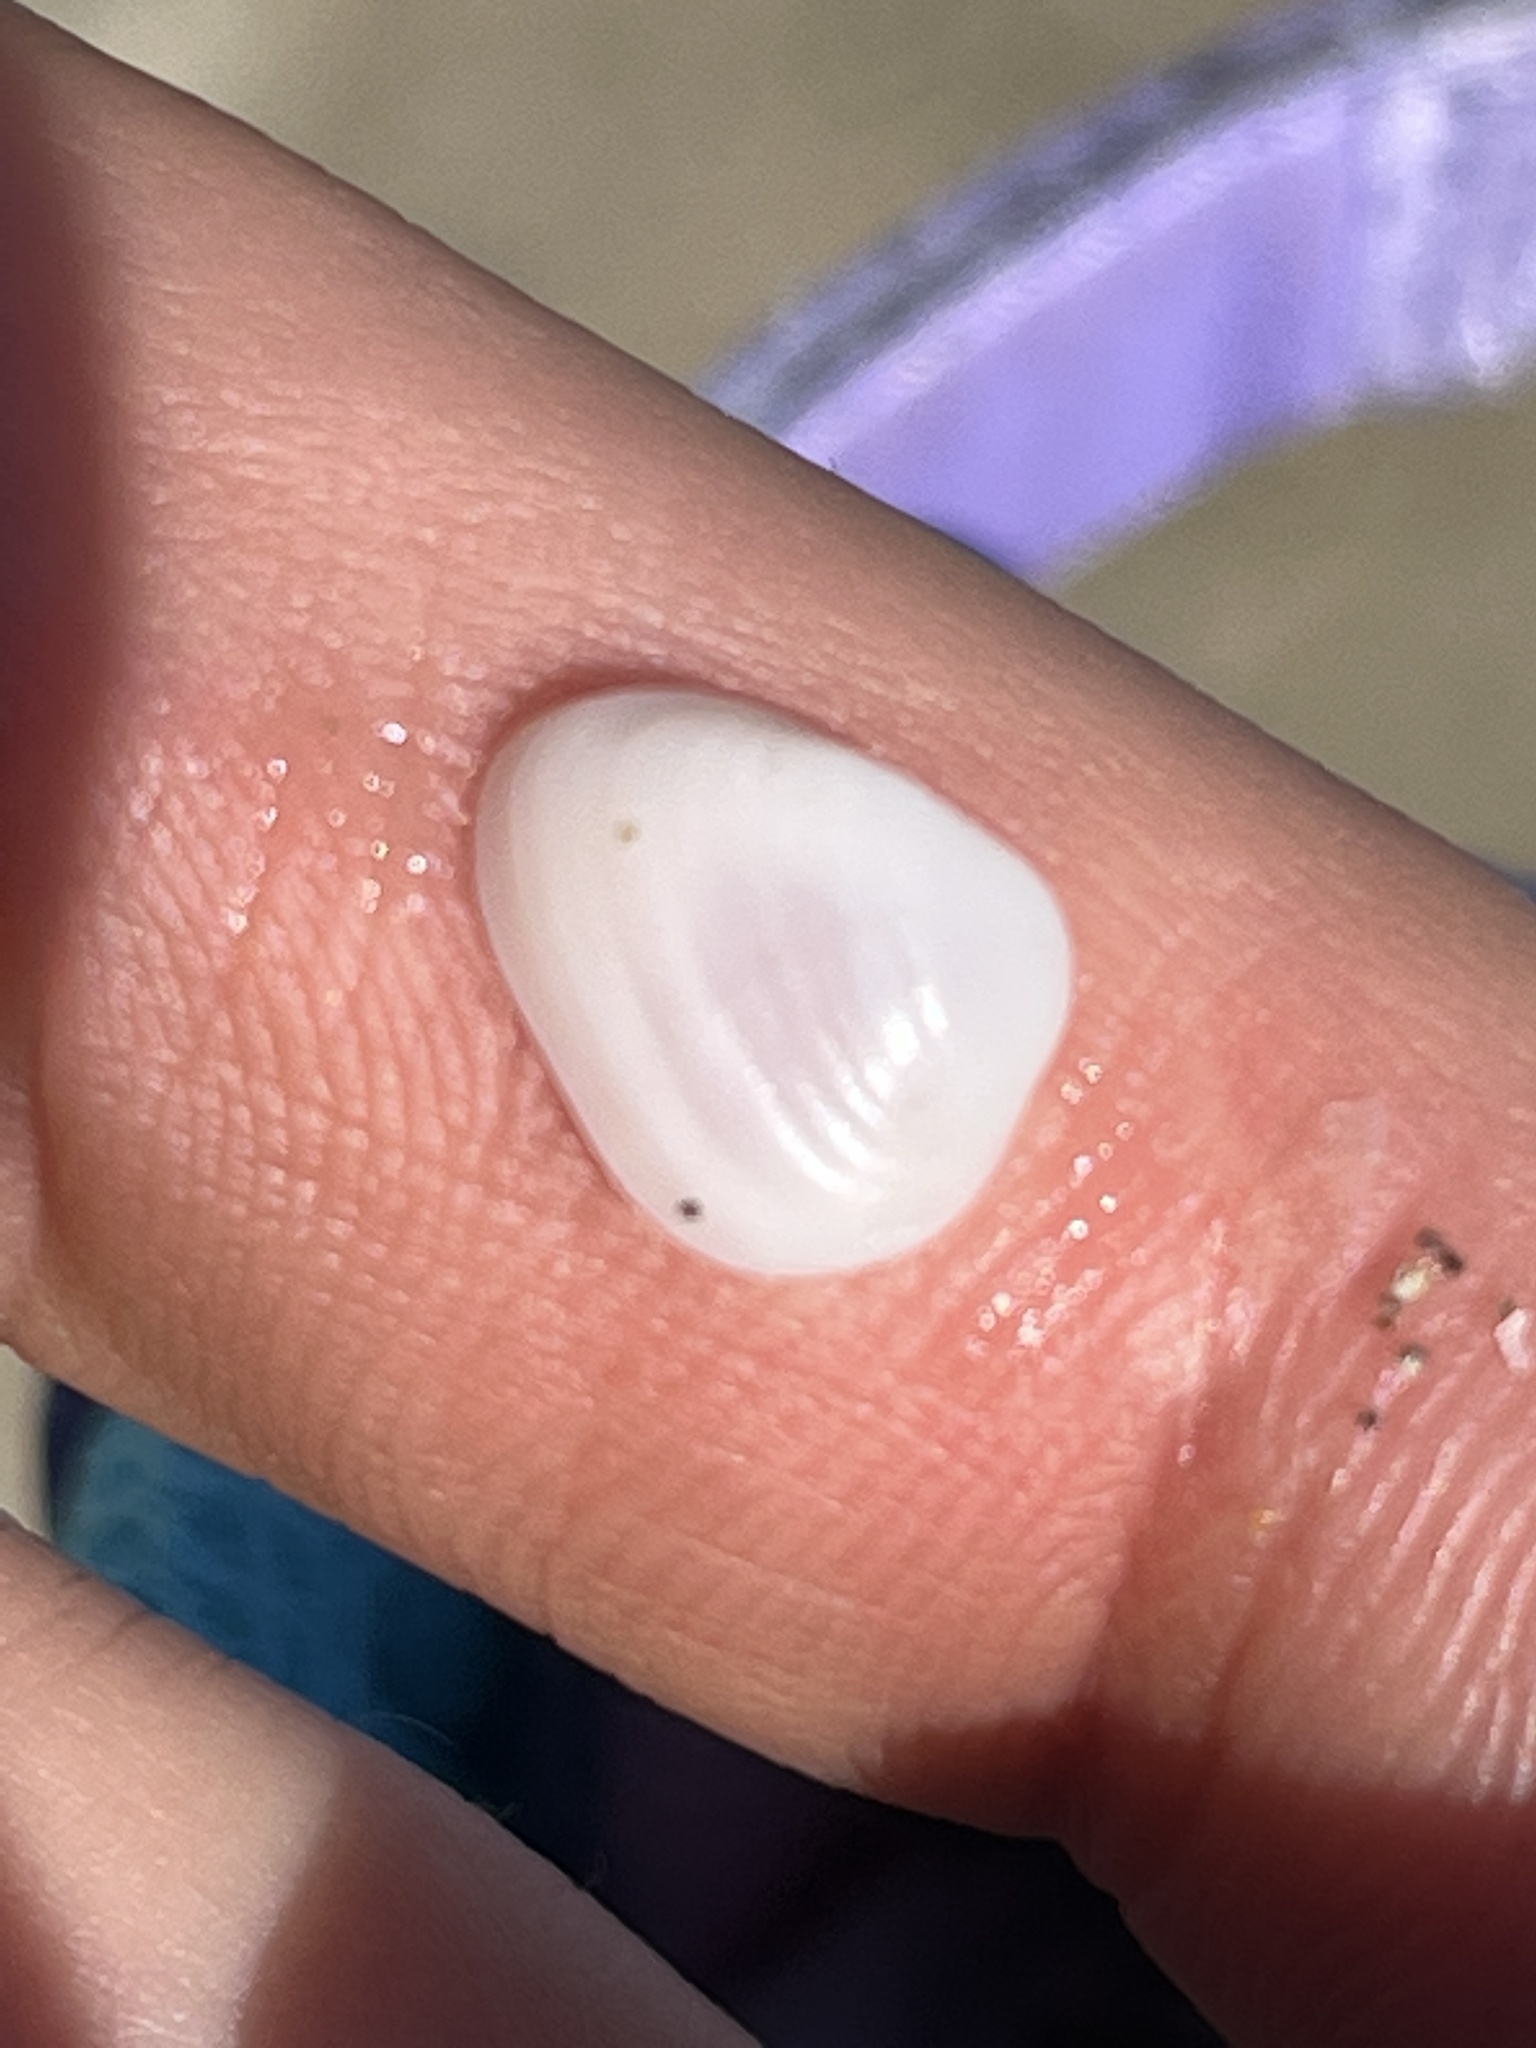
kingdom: Animalia
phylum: Mollusca
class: Bivalvia
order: Arcida
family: Noetiidae
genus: Striarca
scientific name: Striarca lactea
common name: Milky-white ark
